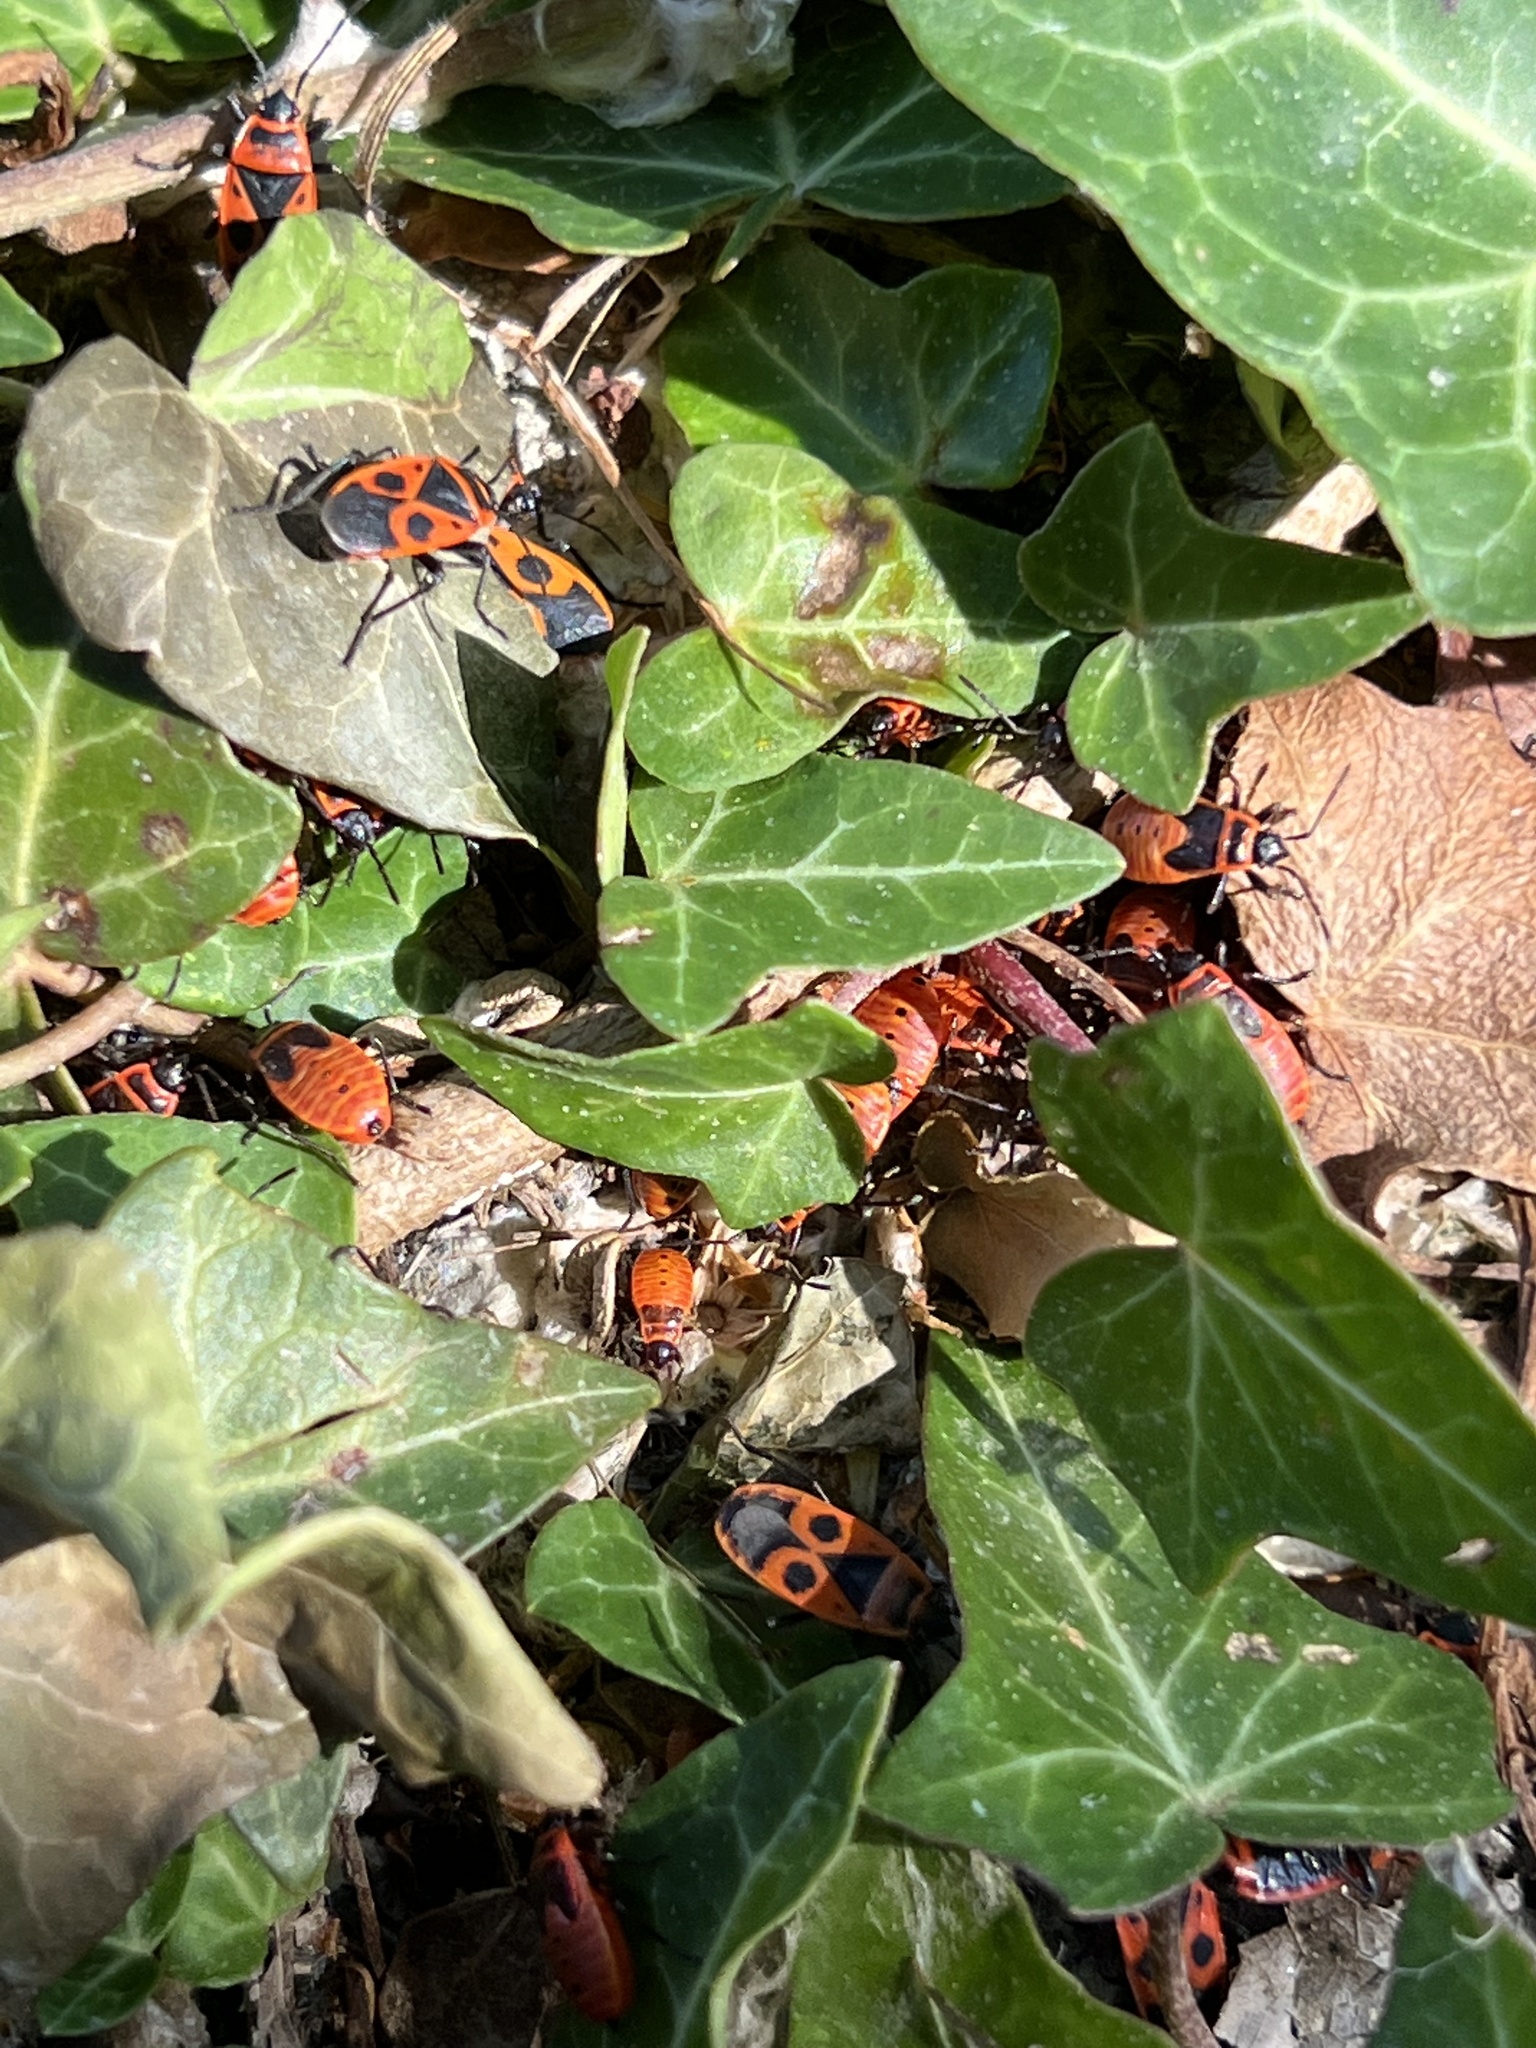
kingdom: Animalia
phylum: Arthropoda
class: Insecta
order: Hemiptera
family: Pyrrhocoridae
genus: Pyrrhocoris
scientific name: Pyrrhocoris apterus
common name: Firebug
